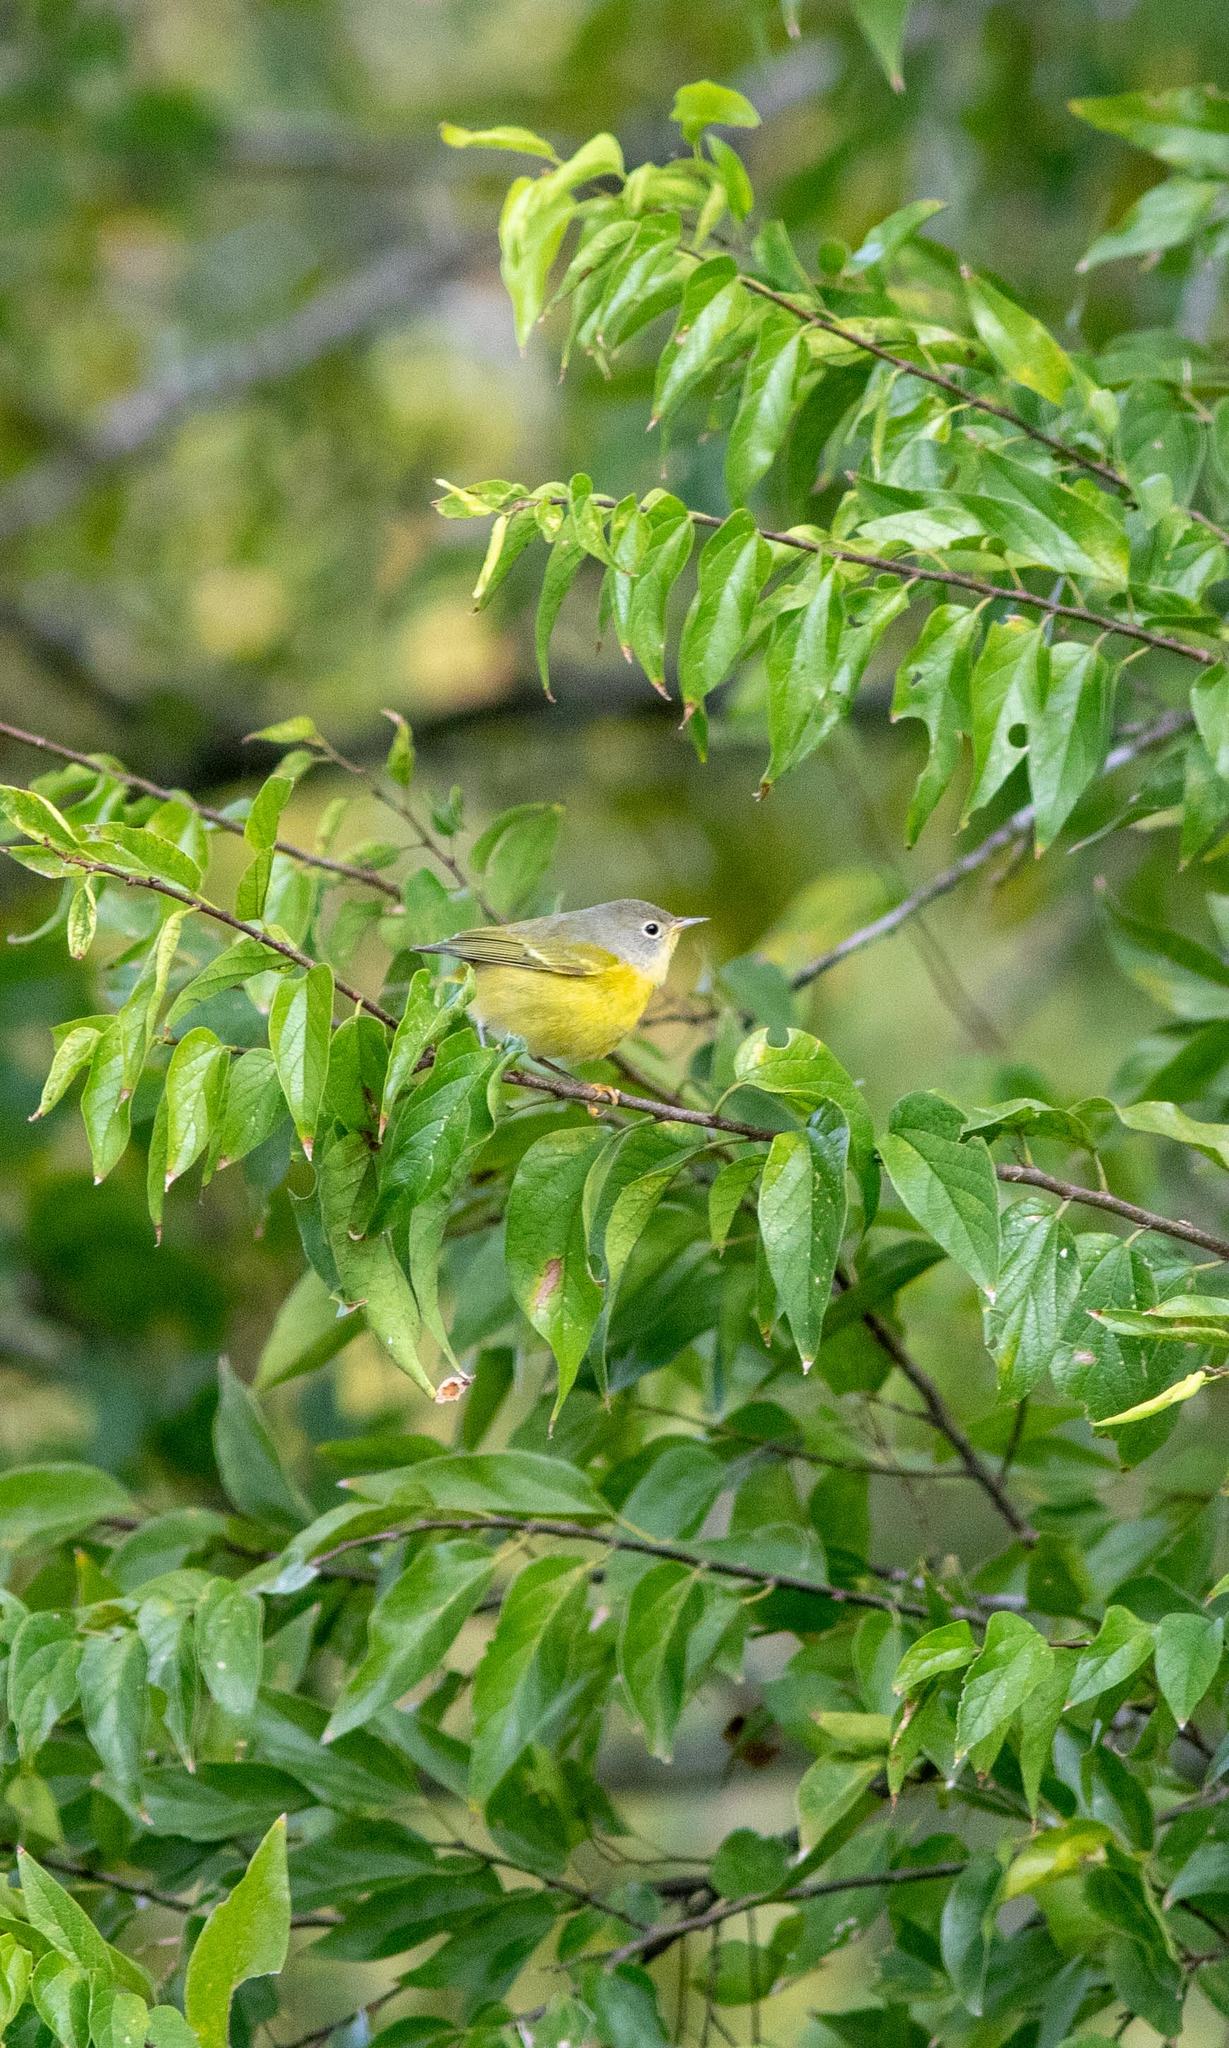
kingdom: Animalia
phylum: Chordata
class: Aves
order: Passeriformes
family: Parulidae
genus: Leiothlypis
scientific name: Leiothlypis ruficapilla
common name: Nashville warbler
